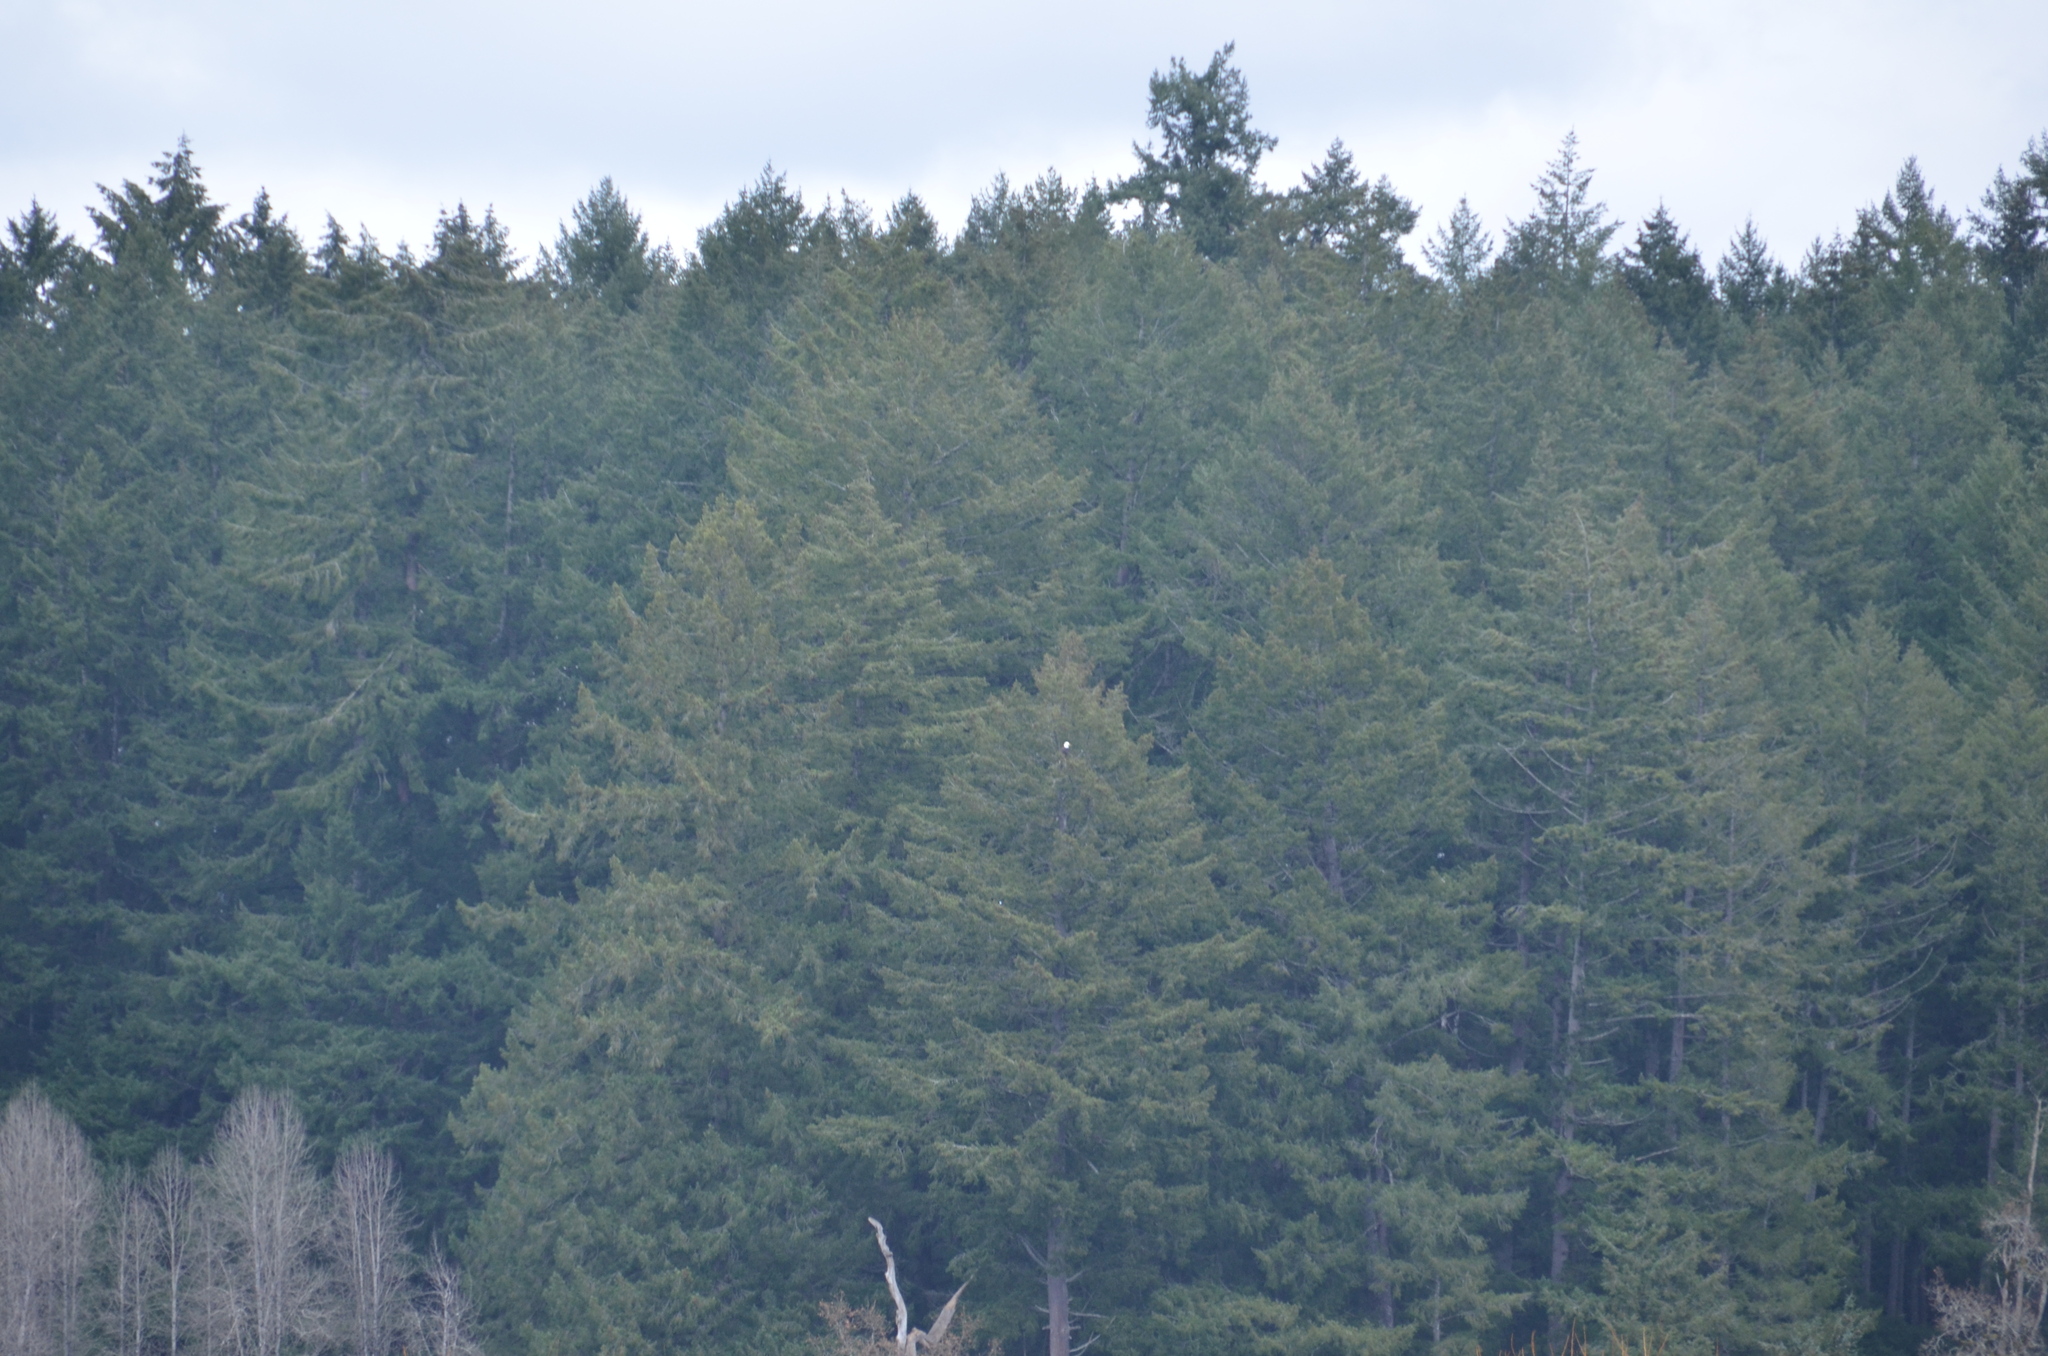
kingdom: Animalia
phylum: Chordata
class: Aves
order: Accipitriformes
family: Accipitridae
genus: Haliaeetus
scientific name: Haliaeetus leucocephalus
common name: Bald eagle
